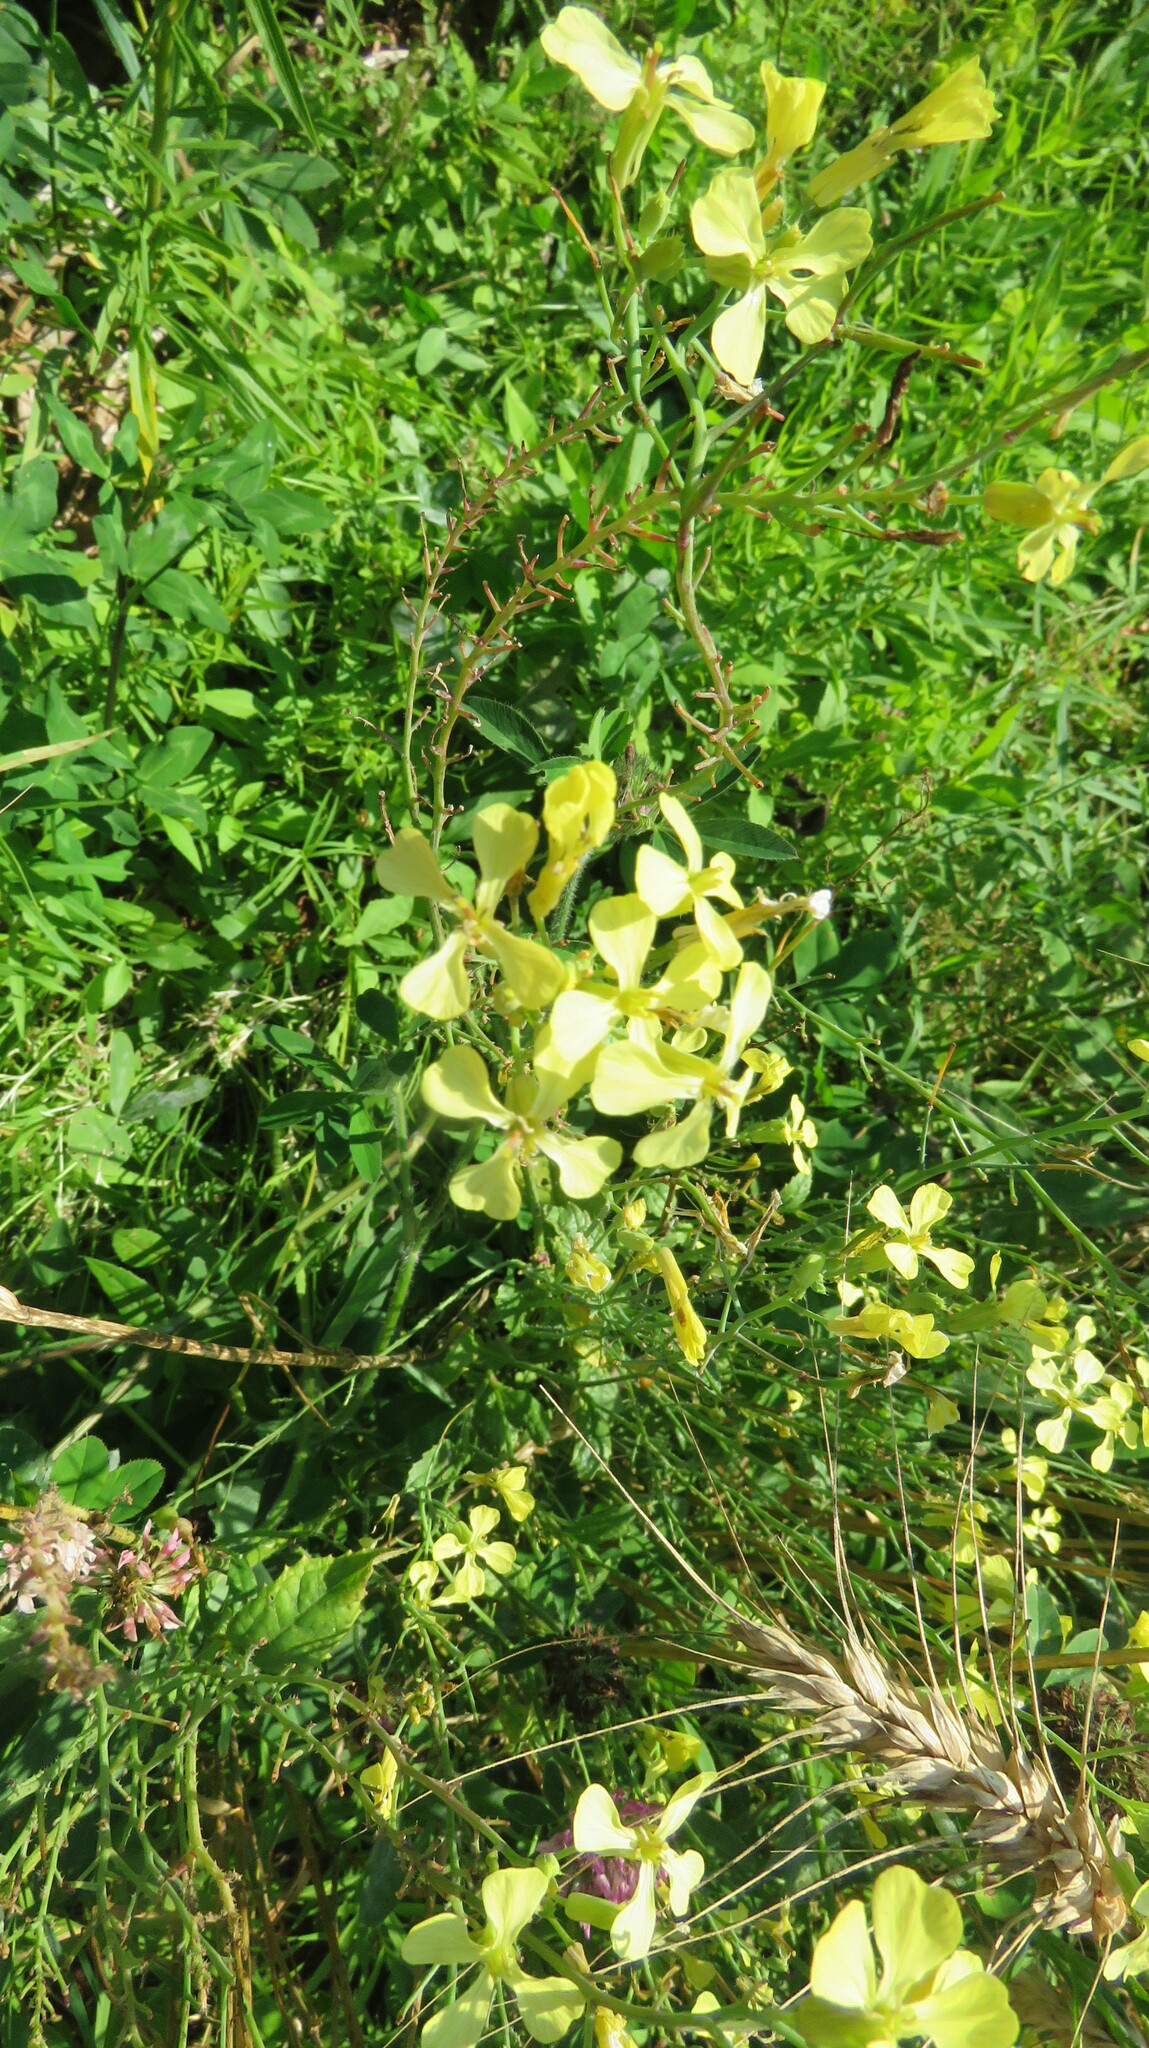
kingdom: Plantae
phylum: Tracheophyta
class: Magnoliopsida
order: Brassicales
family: Brassicaceae
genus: Raphanus
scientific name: Raphanus raphanistrum
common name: Wild radish
